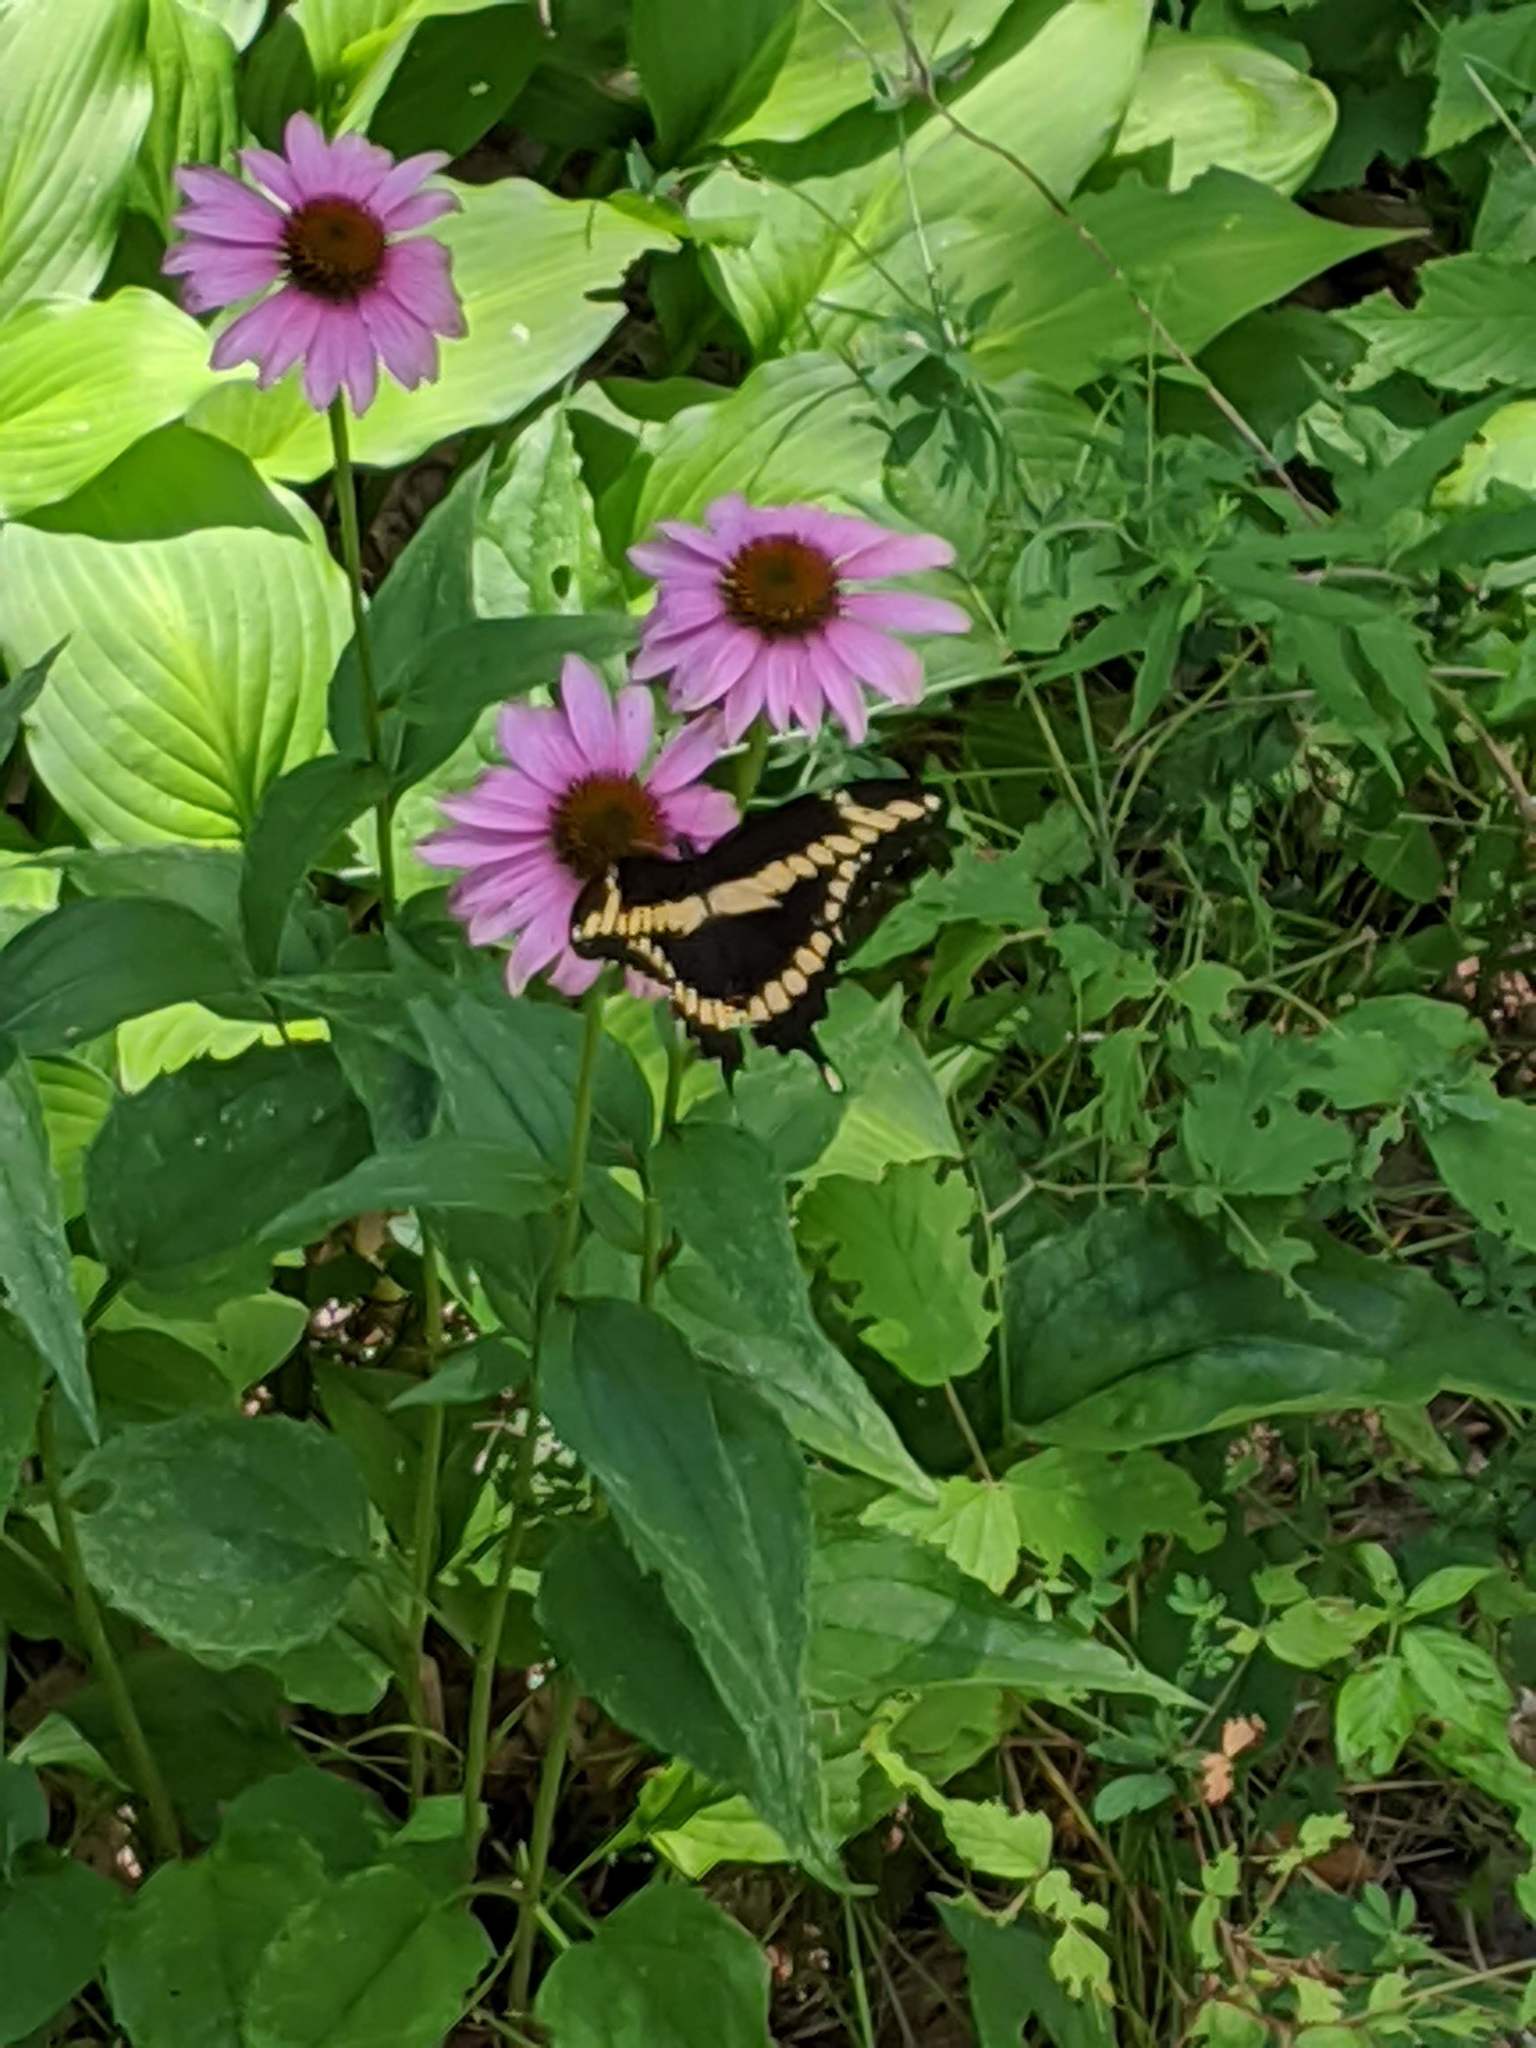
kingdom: Animalia
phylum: Arthropoda
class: Insecta
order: Lepidoptera
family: Papilionidae
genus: Papilio
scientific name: Papilio cresphontes
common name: Giant swallowtail
